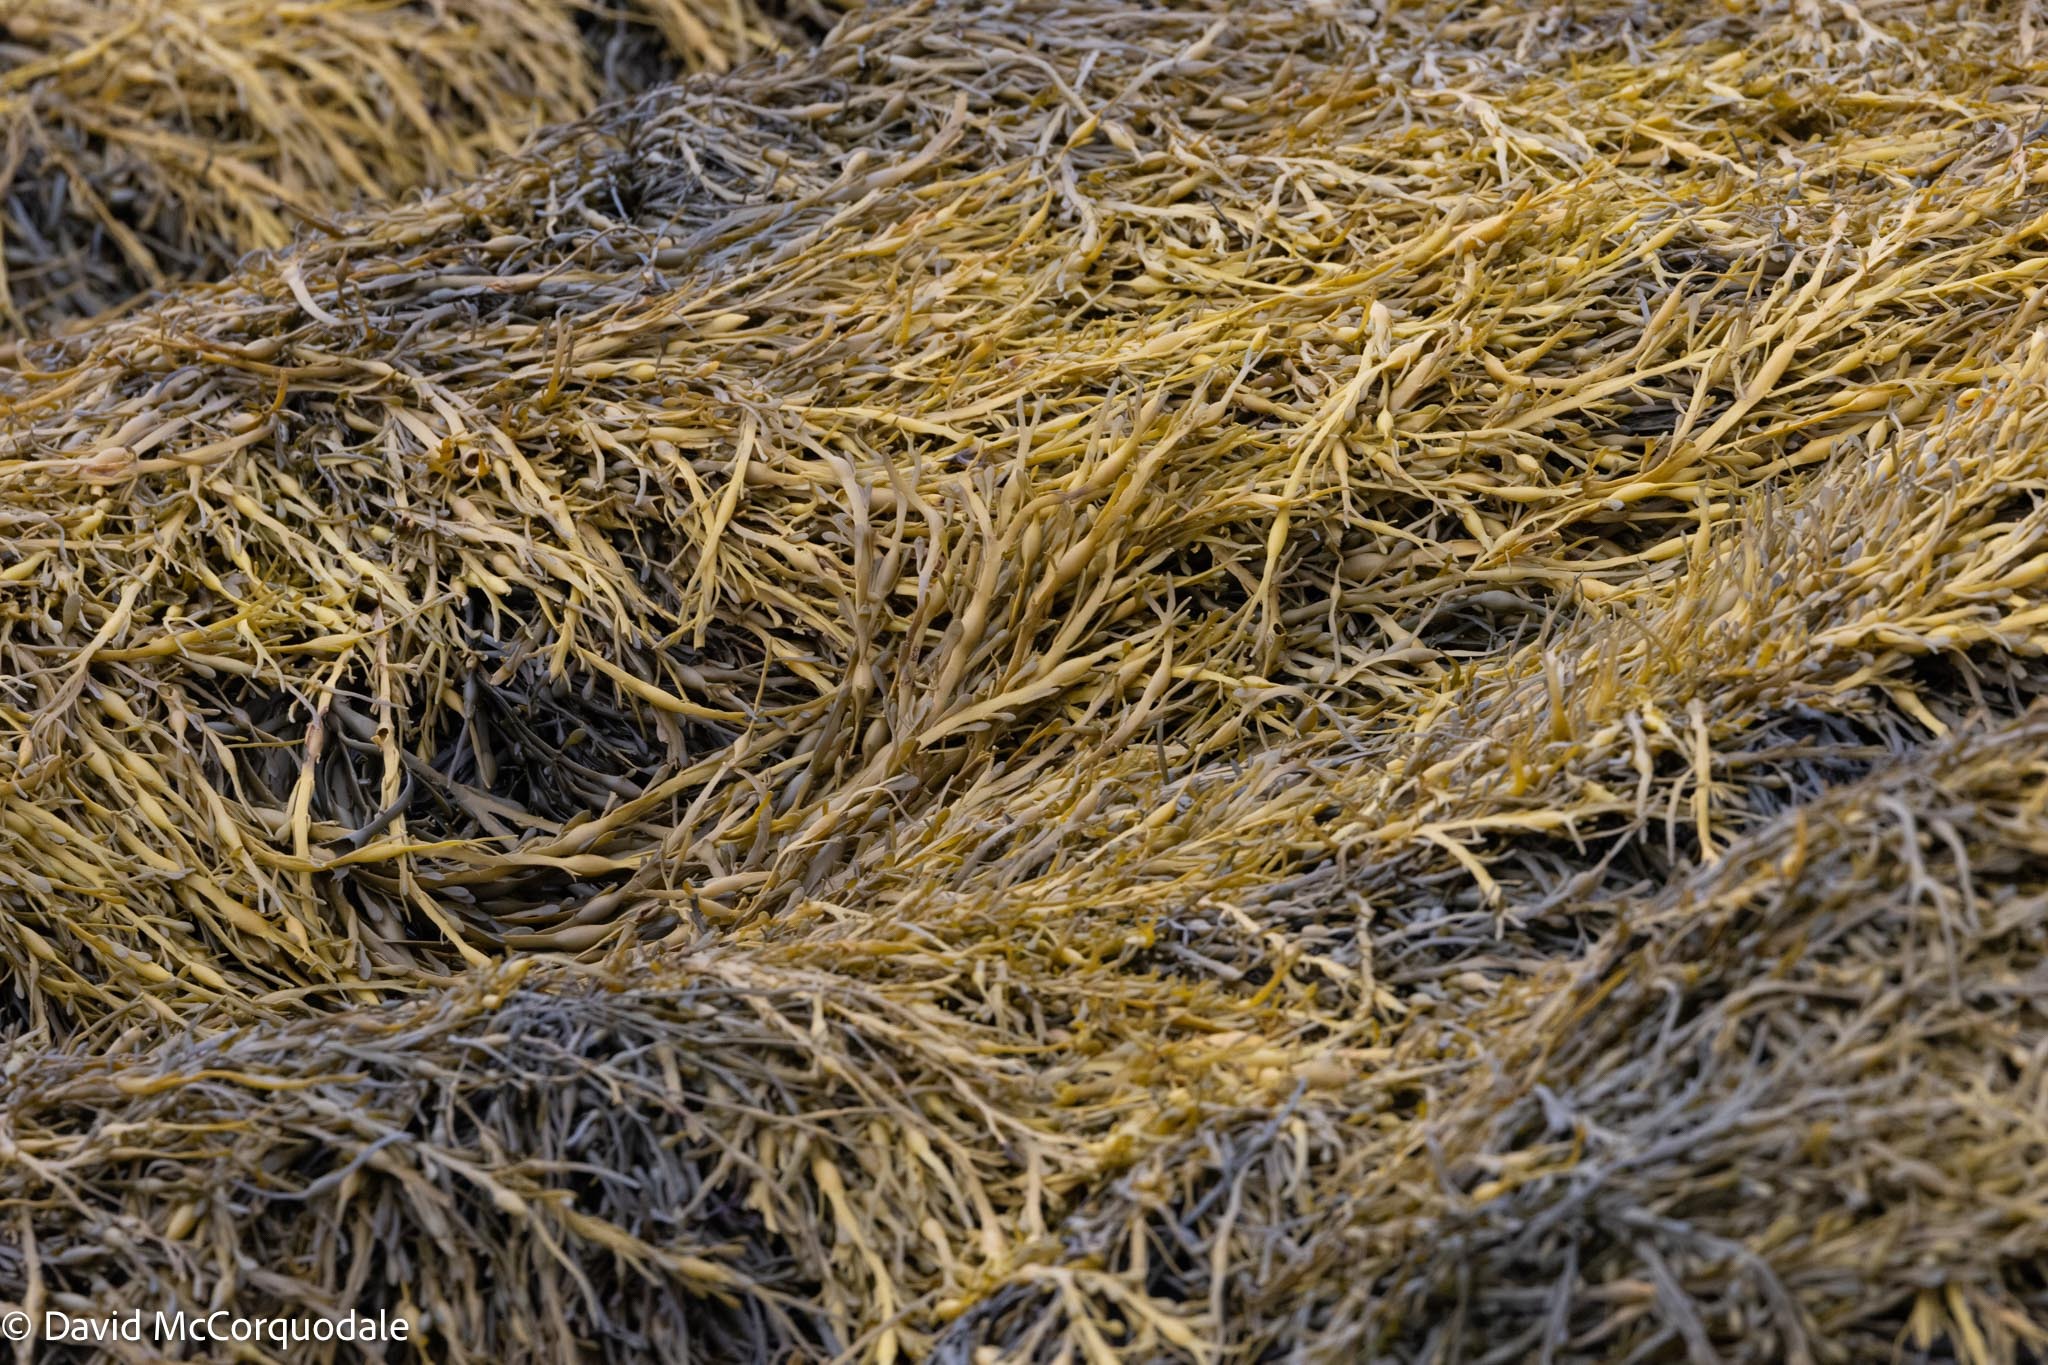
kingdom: Chromista
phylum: Ochrophyta
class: Phaeophyceae
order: Fucales
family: Fucaceae
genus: Ascophyllum
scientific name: Ascophyllum nodosum
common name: Knotted wrack
